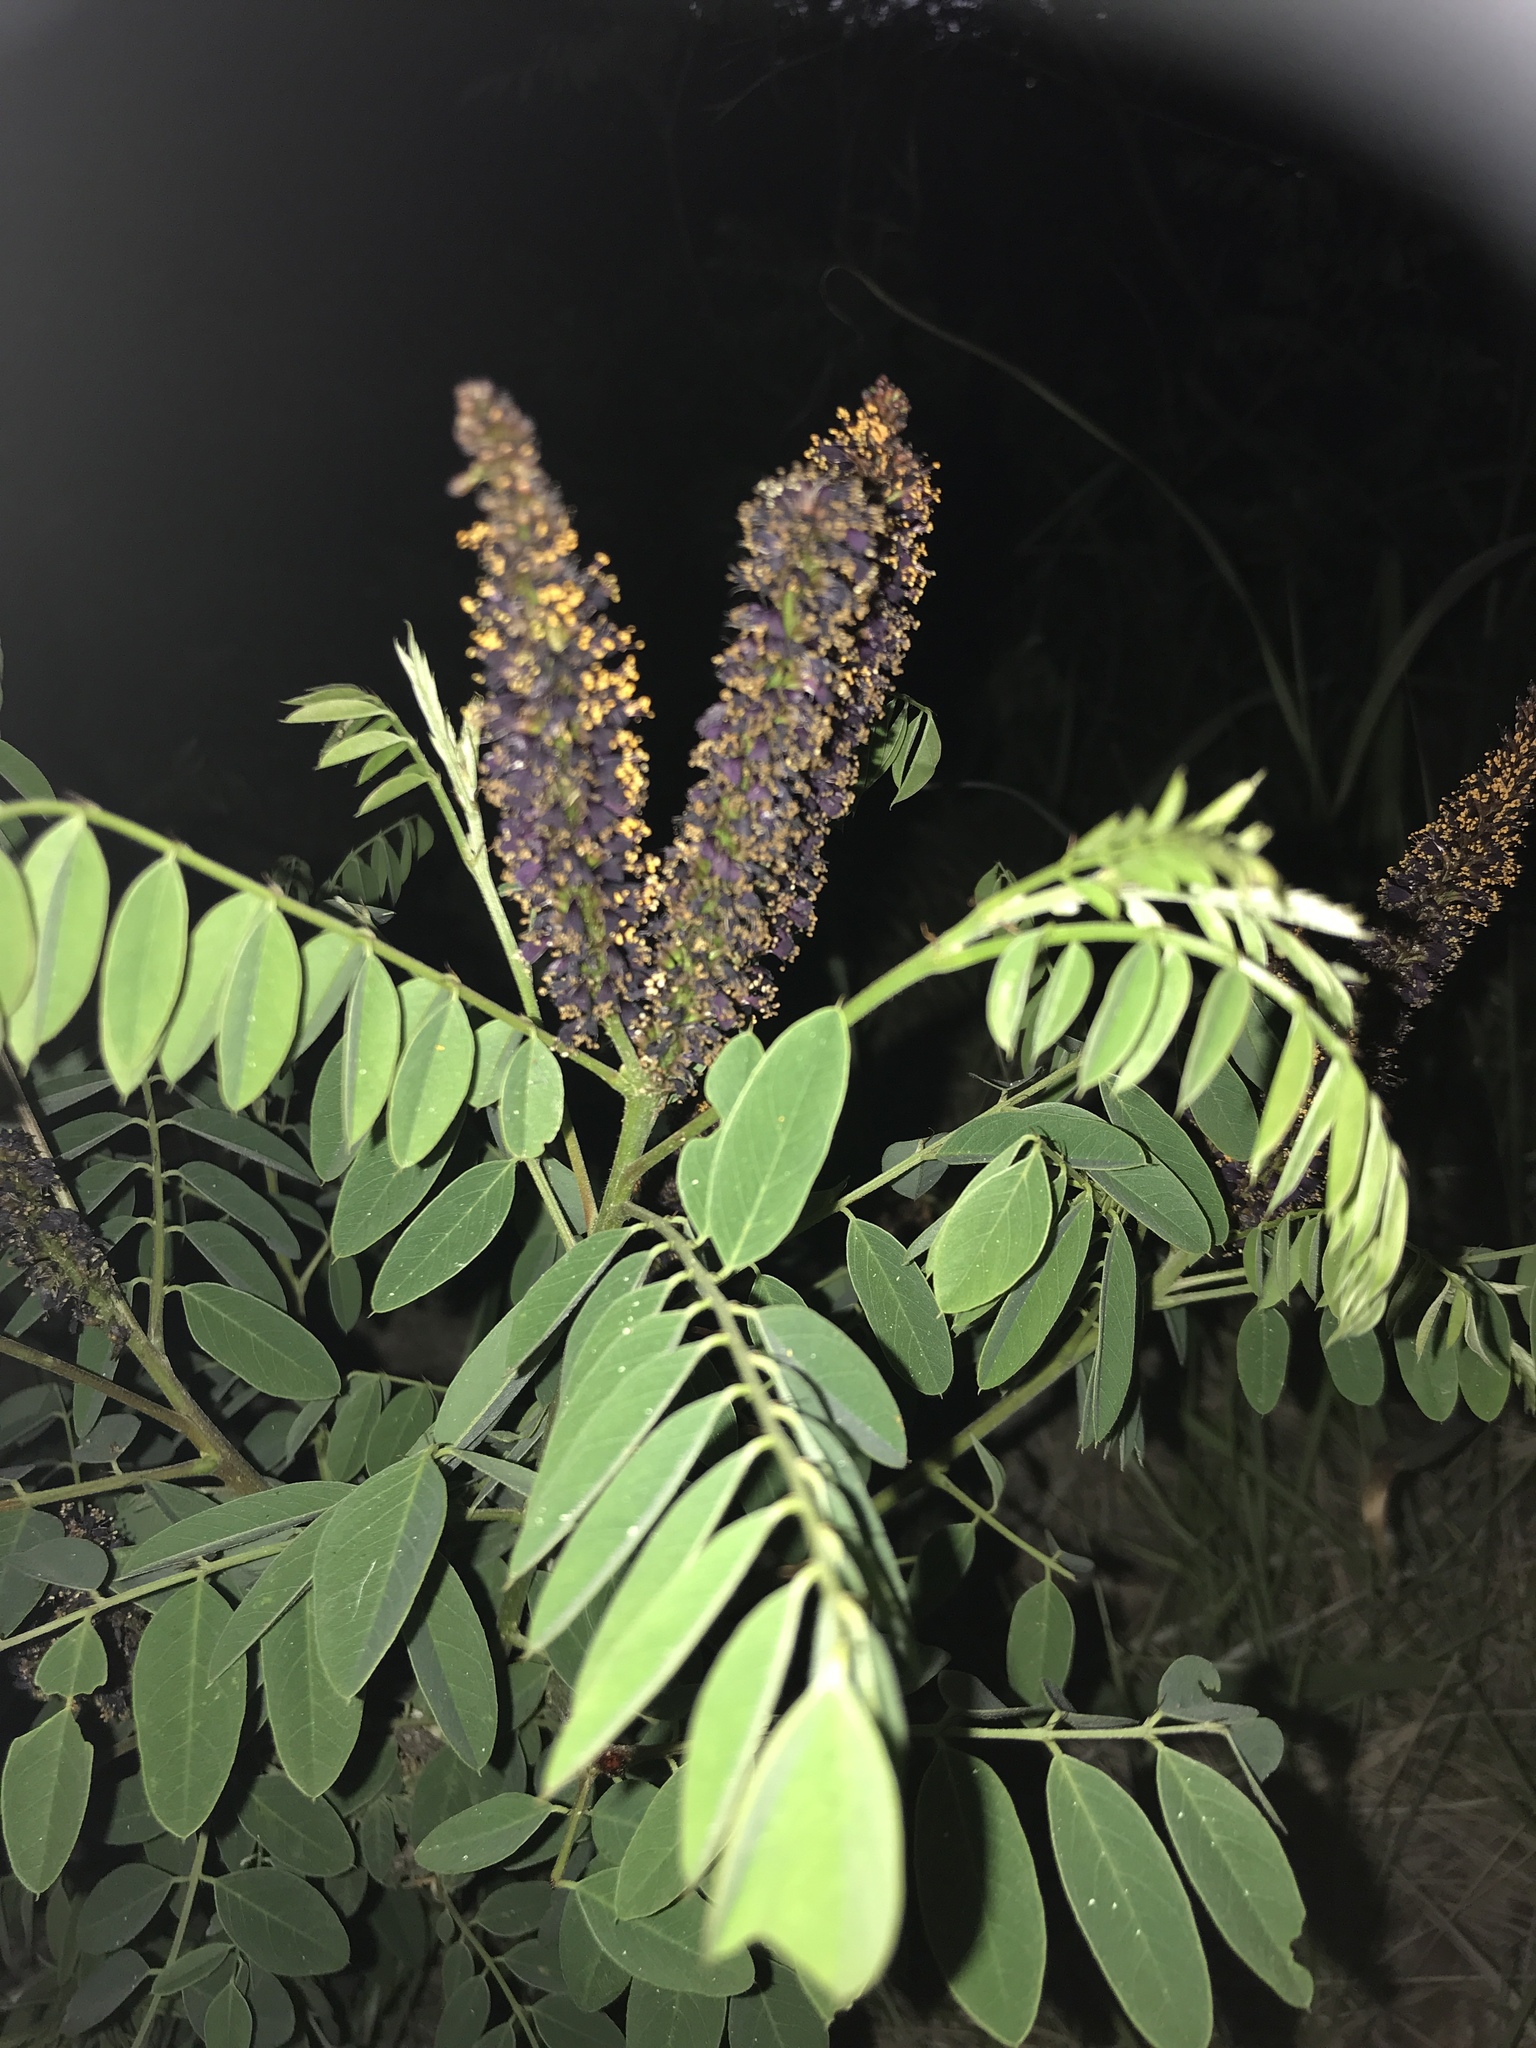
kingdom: Plantae
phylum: Tracheophyta
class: Magnoliopsida
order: Fabales
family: Fabaceae
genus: Amorpha
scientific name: Amorpha fruticosa
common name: False indigo
